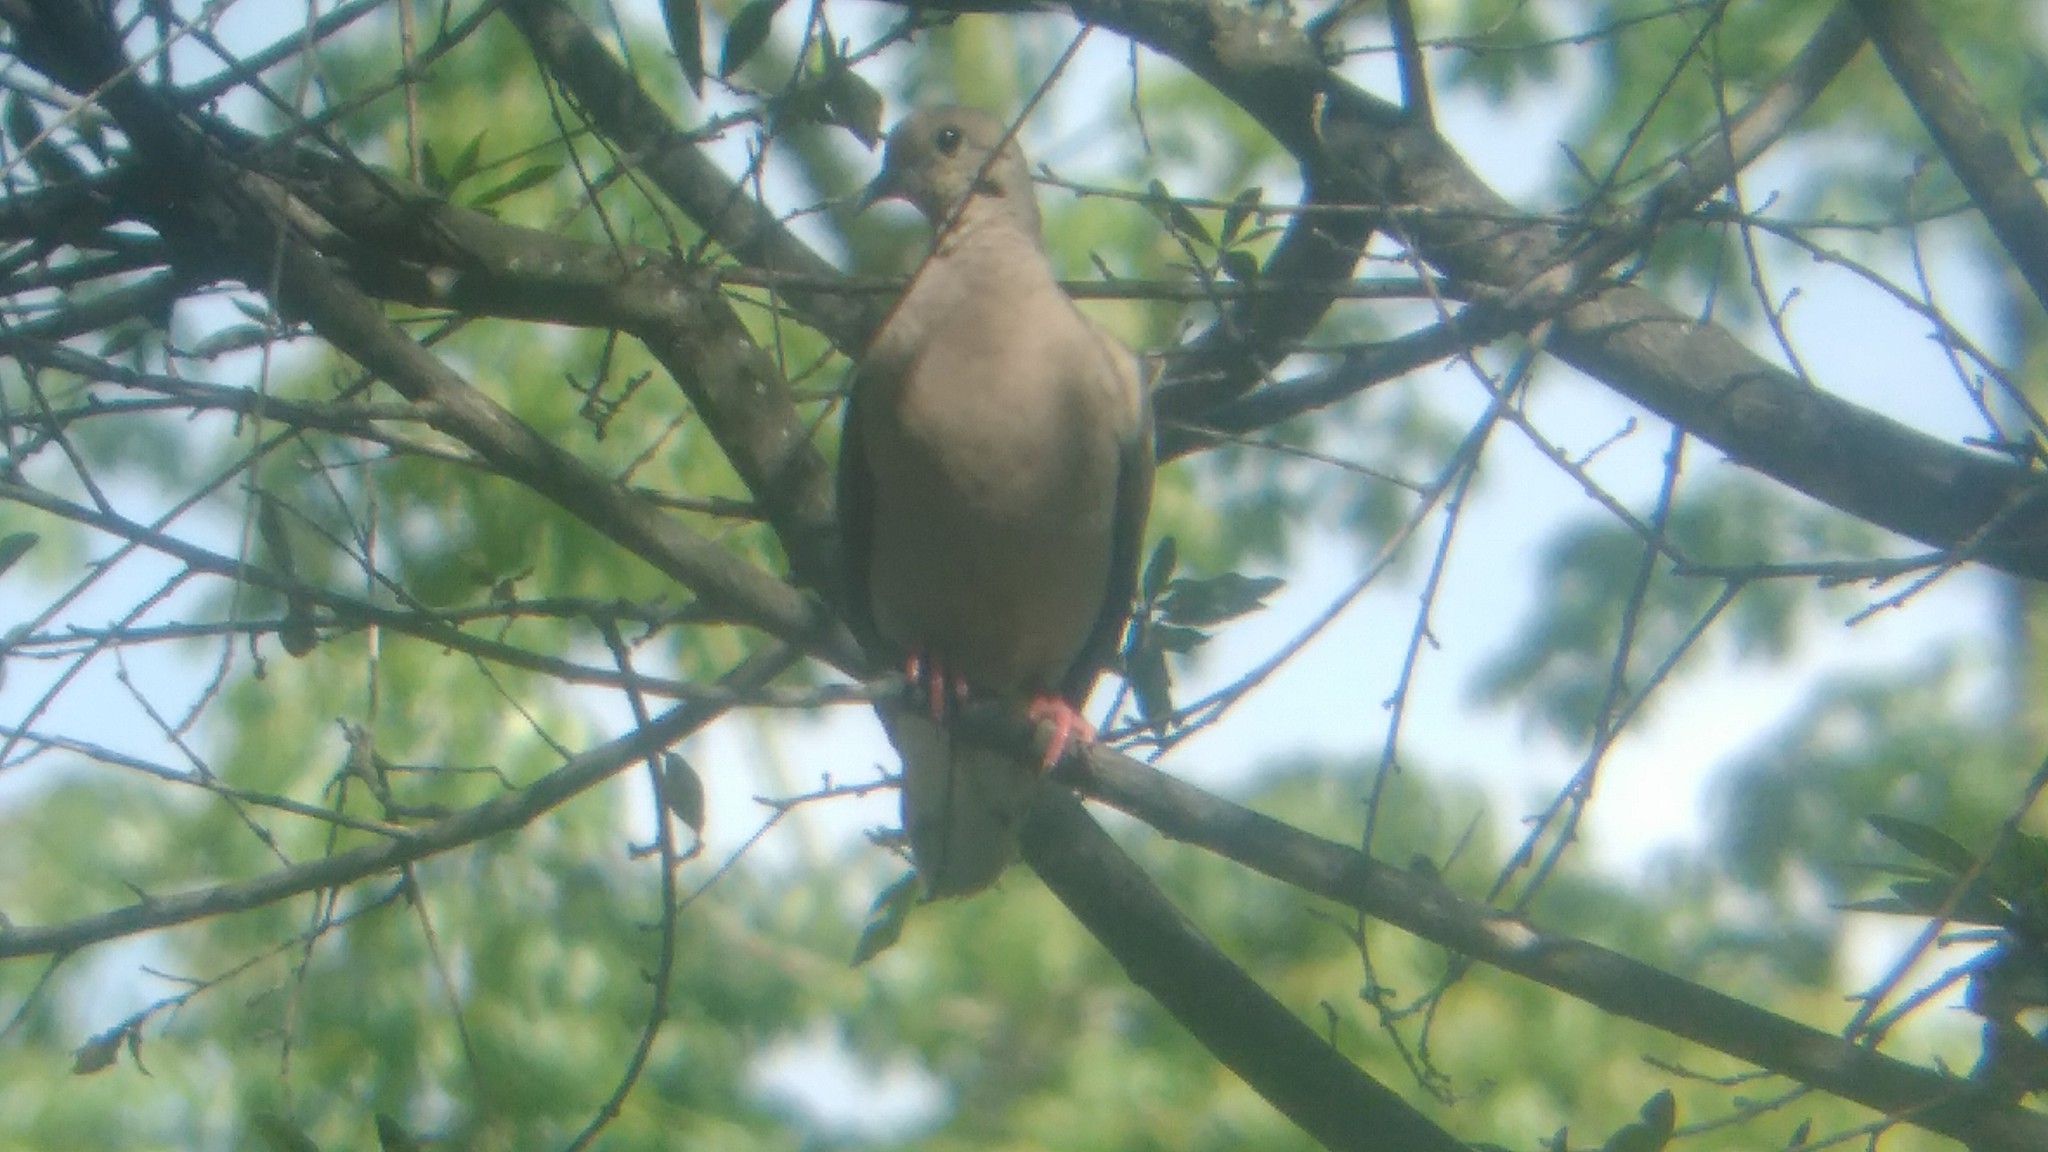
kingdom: Animalia
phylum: Chordata
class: Aves
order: Columbiformes
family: Columbidae
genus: Zenaida
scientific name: Zenaida auriculata
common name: Eared dove
